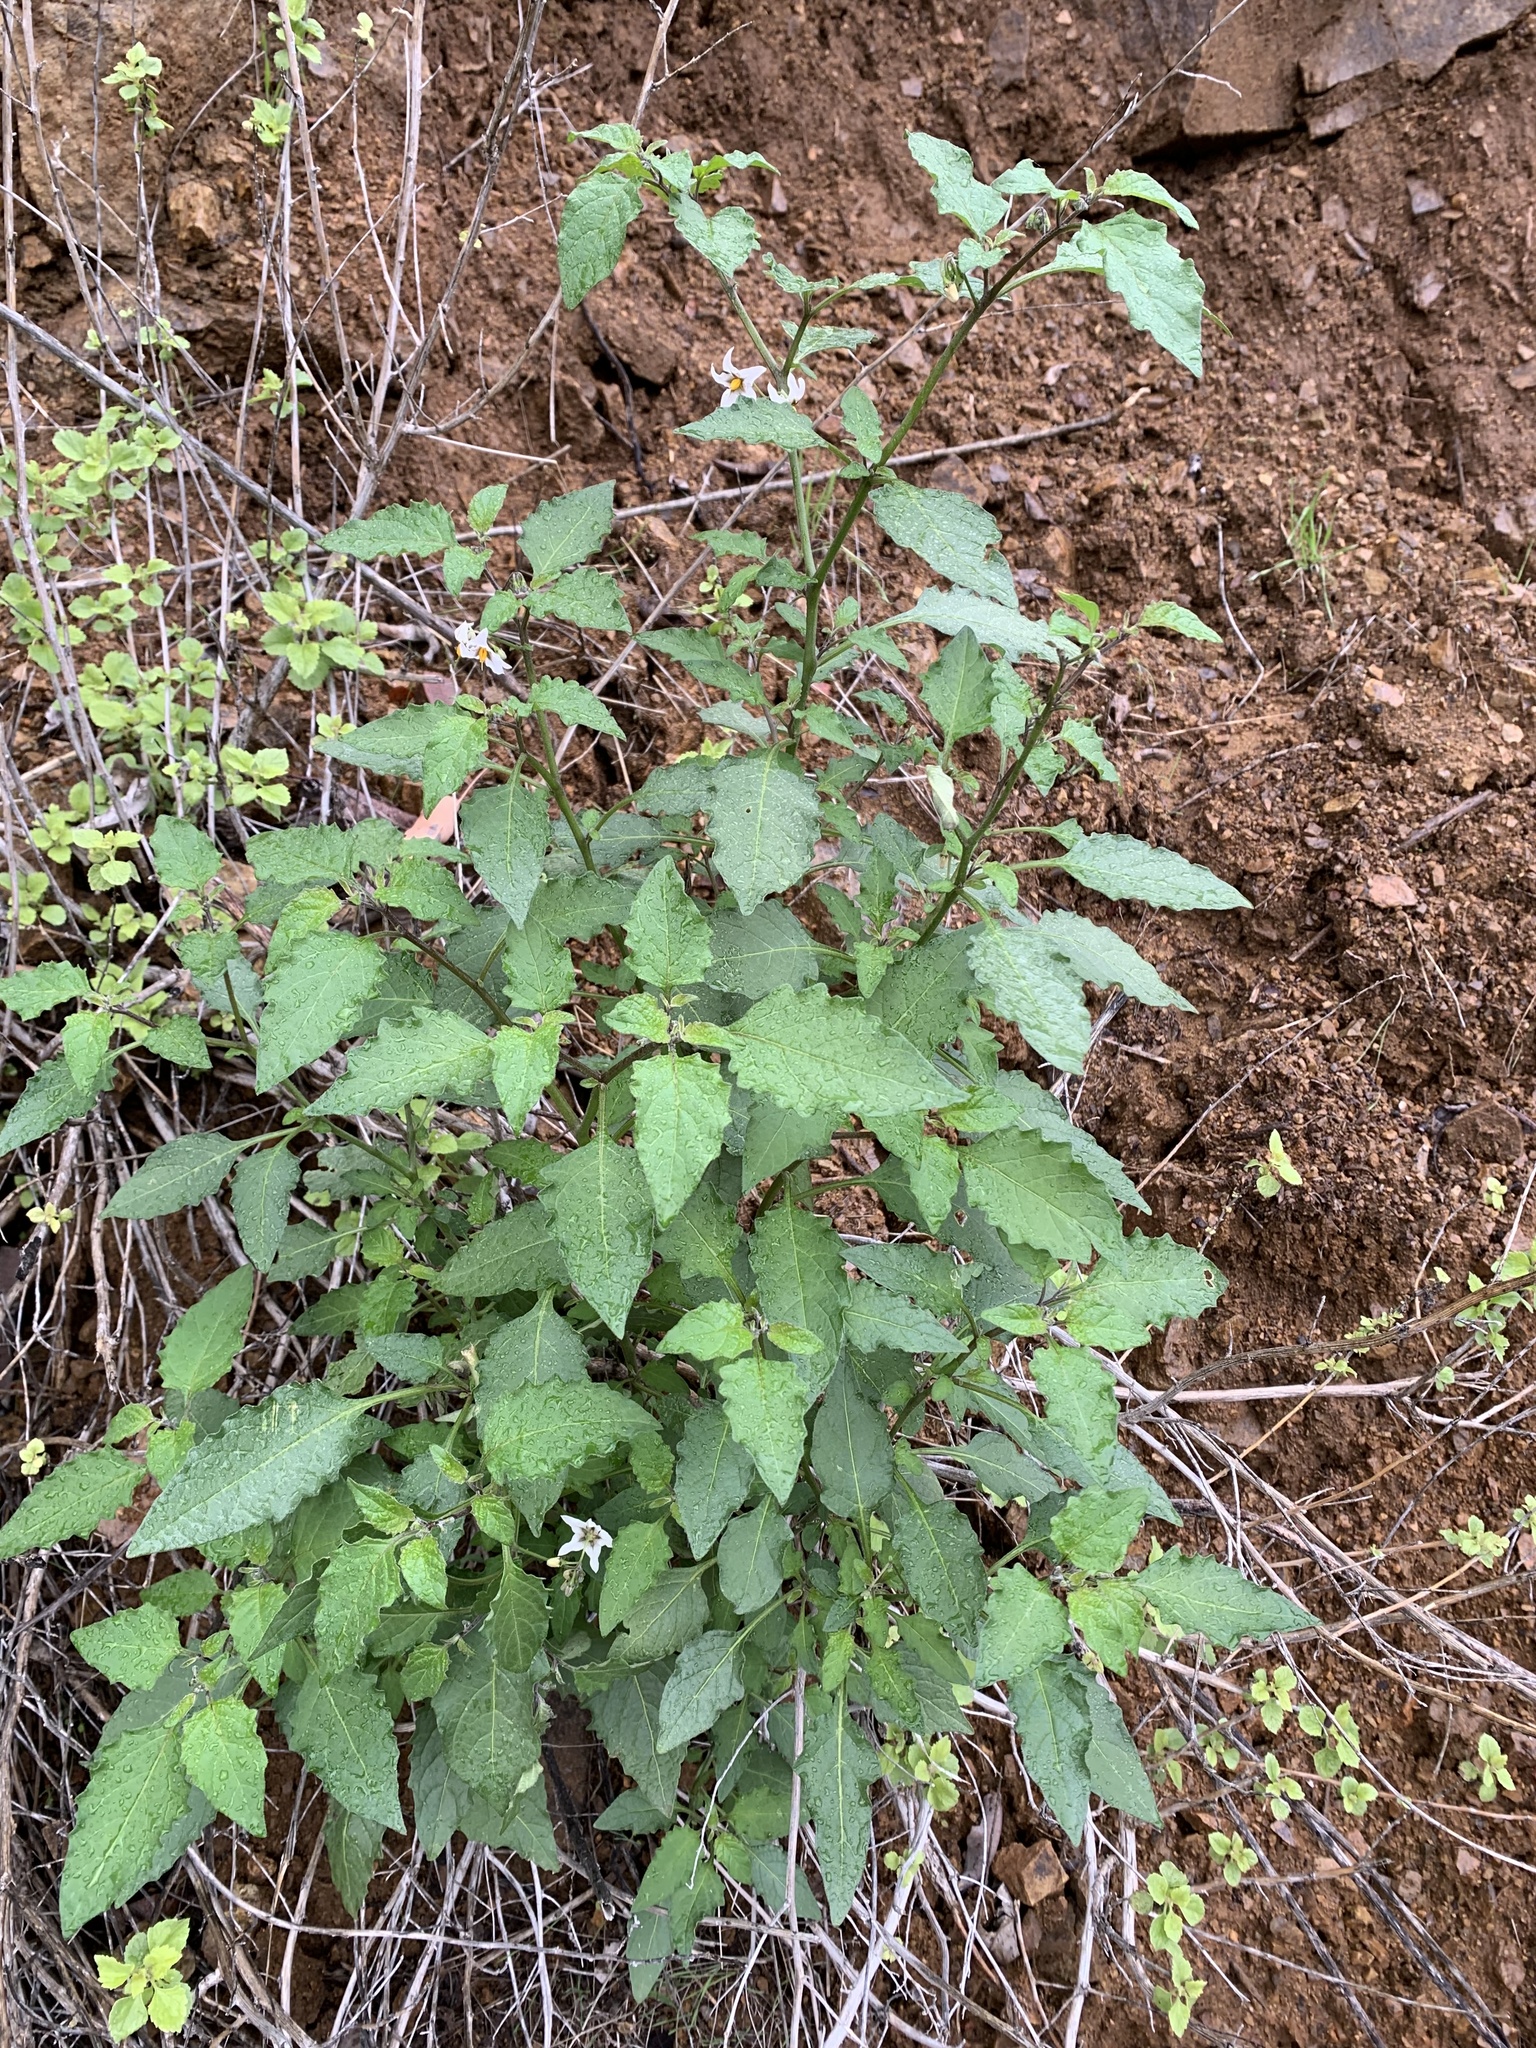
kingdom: Plantae
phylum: Tracheophyta
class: Magnoliopsida
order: Solanales
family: Solanaceae
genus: Solanum
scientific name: Solanum douglasii
